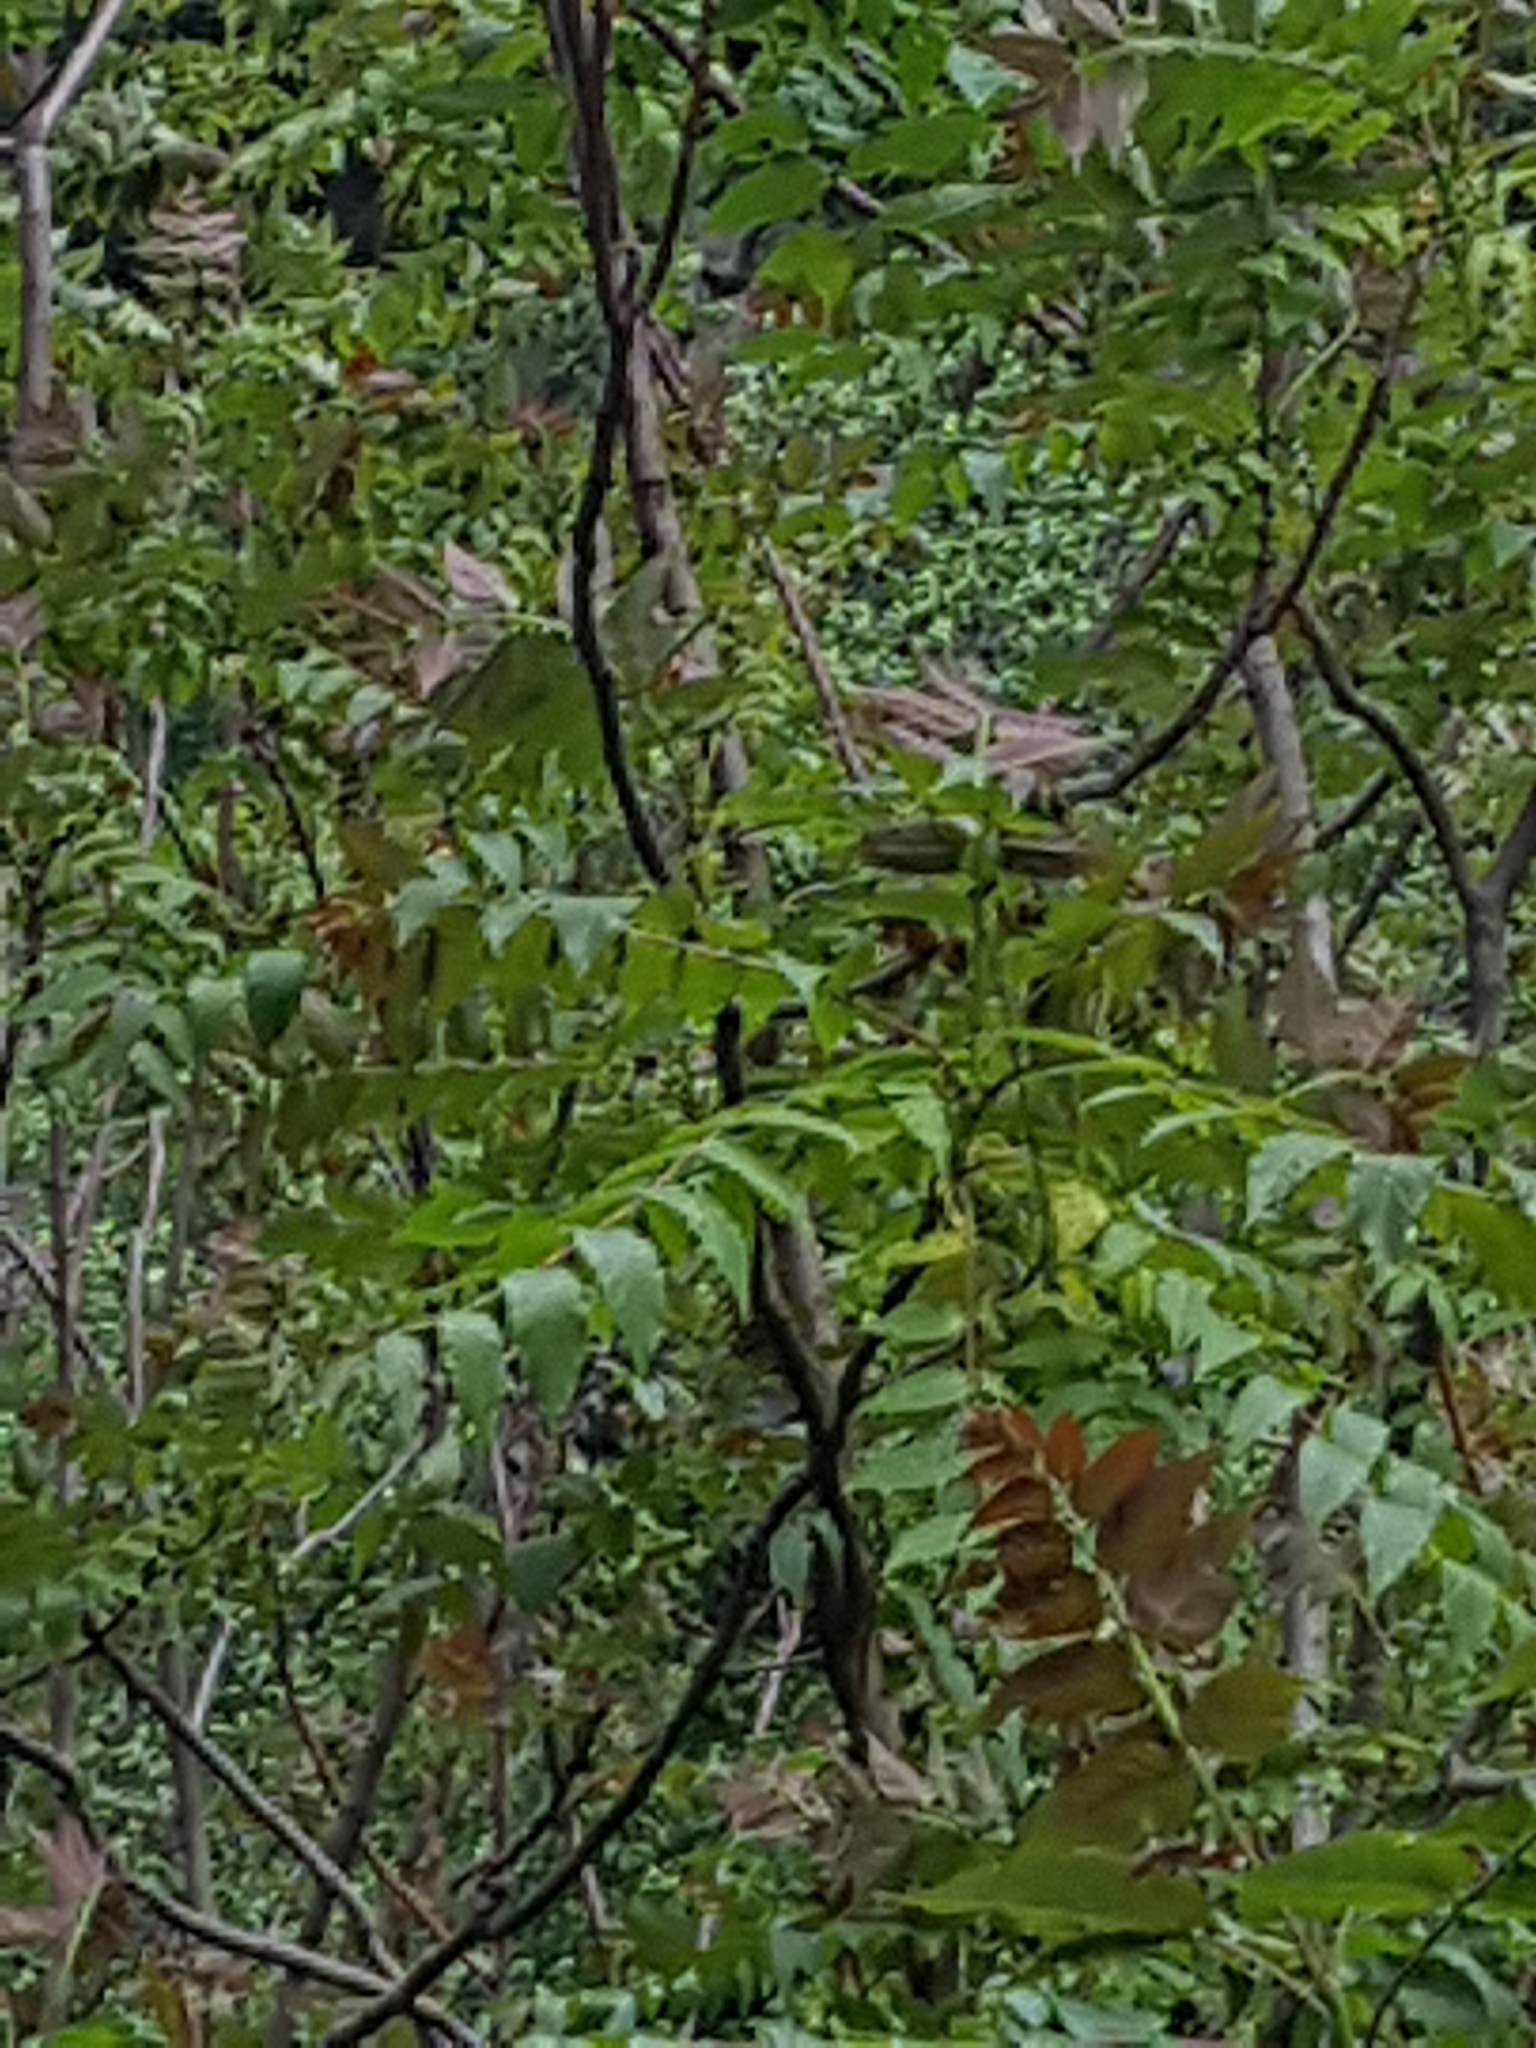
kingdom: Plantae
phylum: Tracheophyta
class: Magnoliopsida
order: Sapindales
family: Simaroubaceae
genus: Ailanthus
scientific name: Ailanthus altissima
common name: Tree-of-heaven
